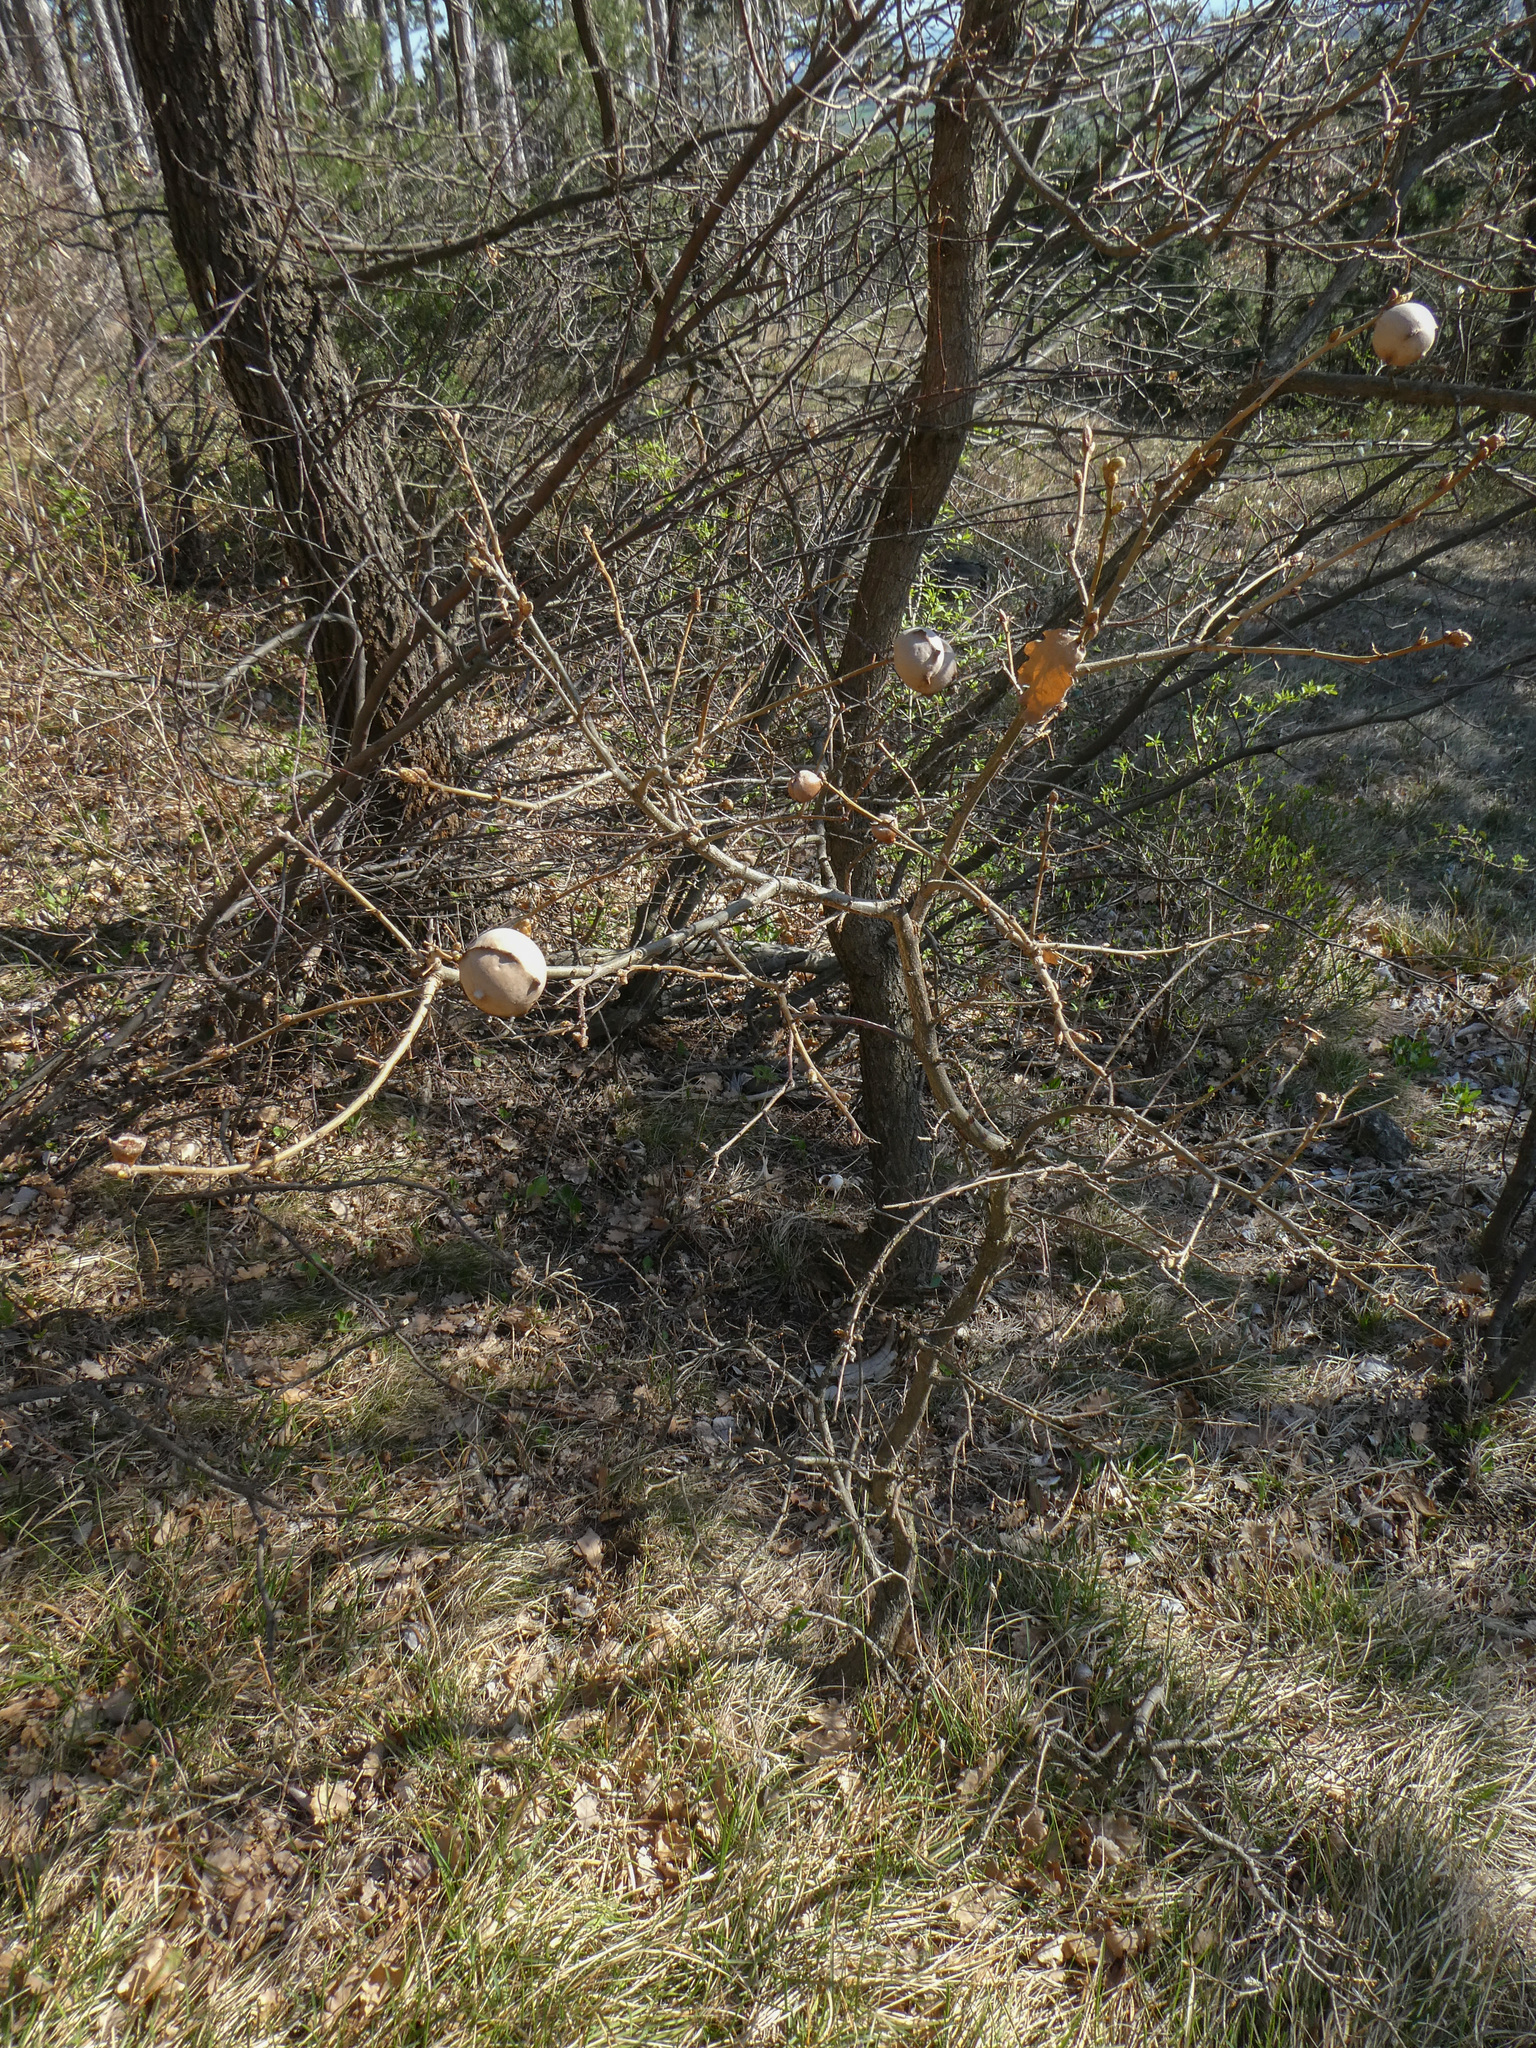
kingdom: Animalia
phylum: Arthropoda
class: Insecta
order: Hymenoptera
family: Cynipidae
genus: Andricus
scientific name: Andricus quercustozae
